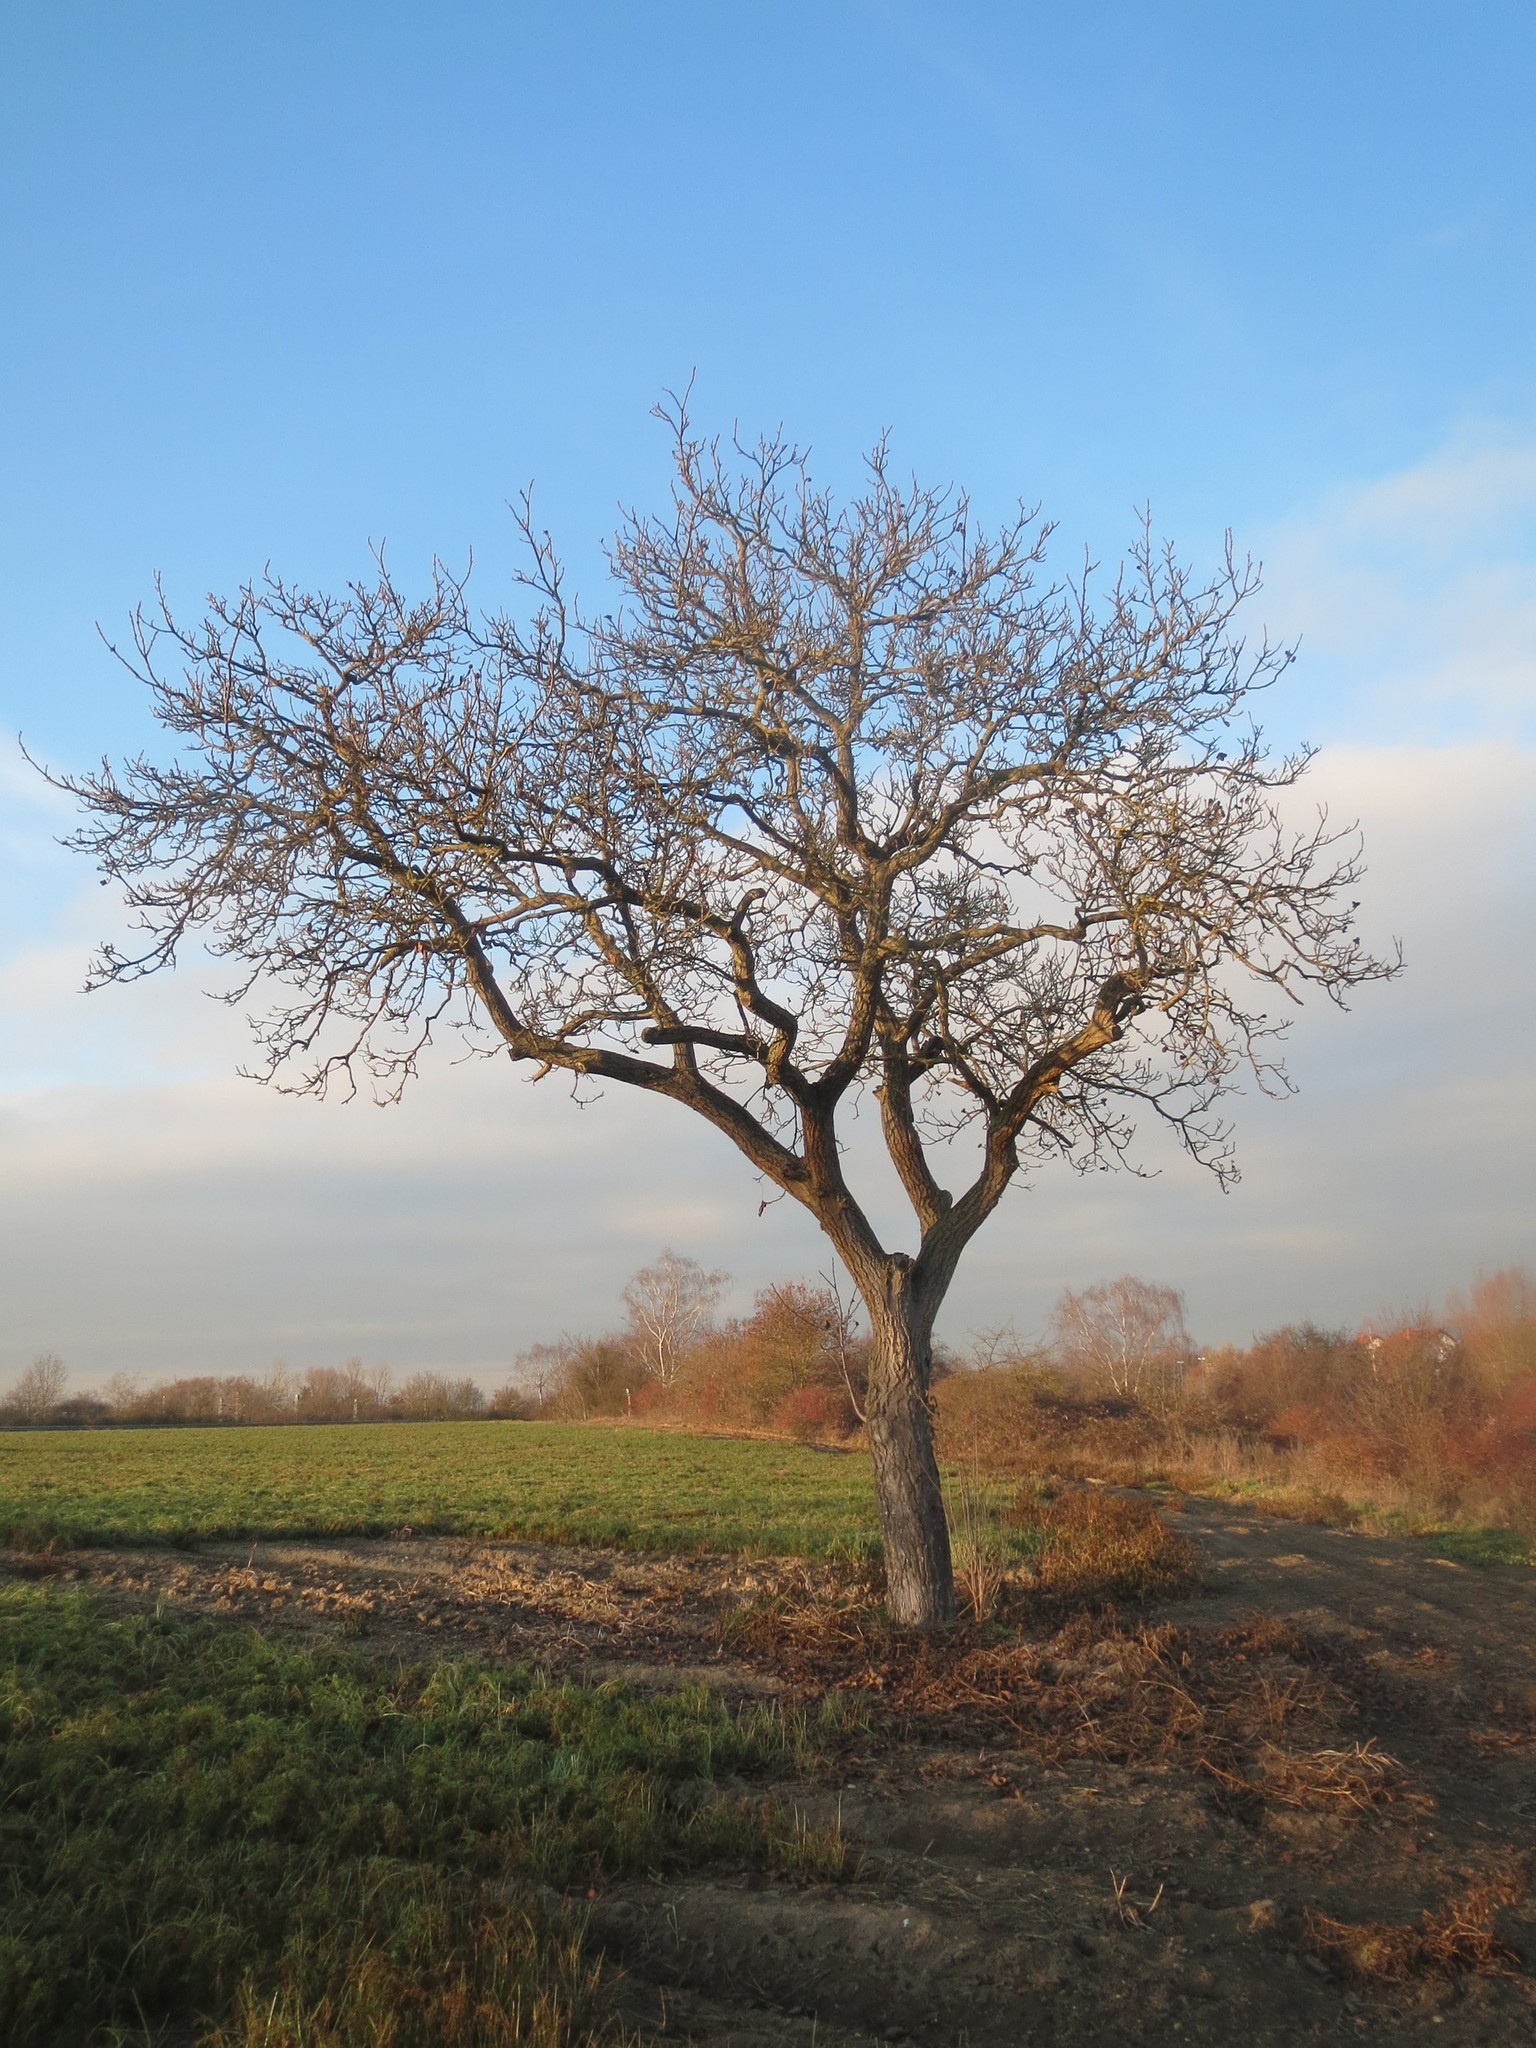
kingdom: Plantae
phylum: Tracheophyta
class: Magnoliopsida
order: Fagales
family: Juglandaceae
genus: Juglans
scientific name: Juglans regia
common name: Walnut
